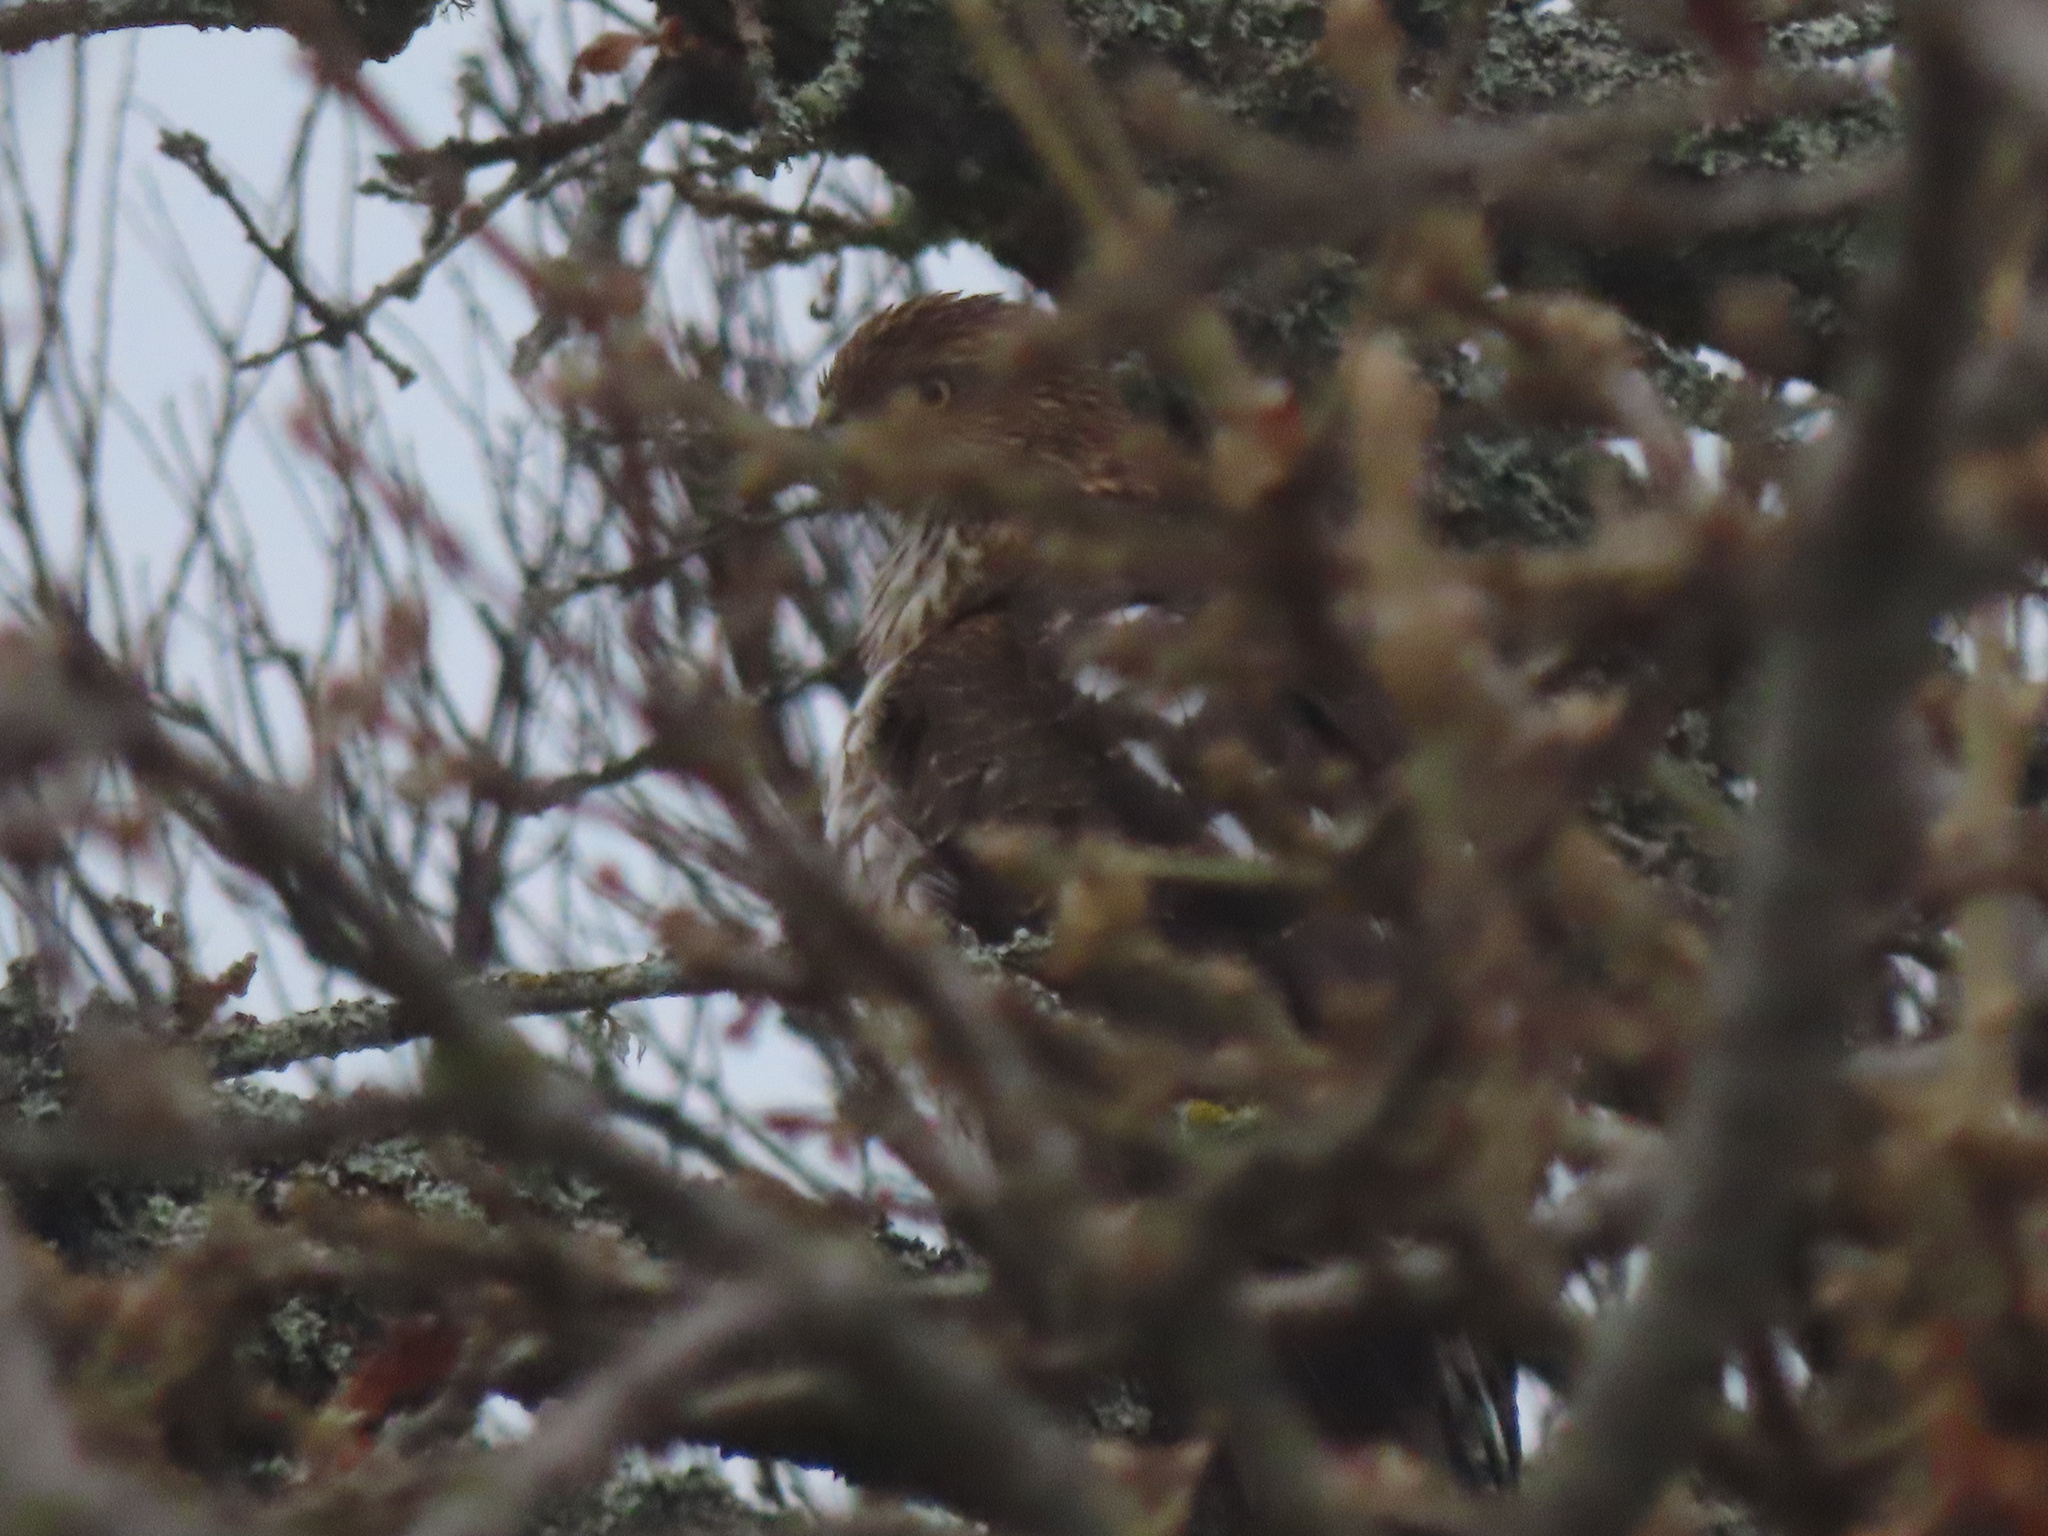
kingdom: Animalia
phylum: Chordata
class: Aves
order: Accipitriformes
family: Accipitridae
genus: Accipiter
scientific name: Accipiter cooperii
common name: Cooper's hawk
